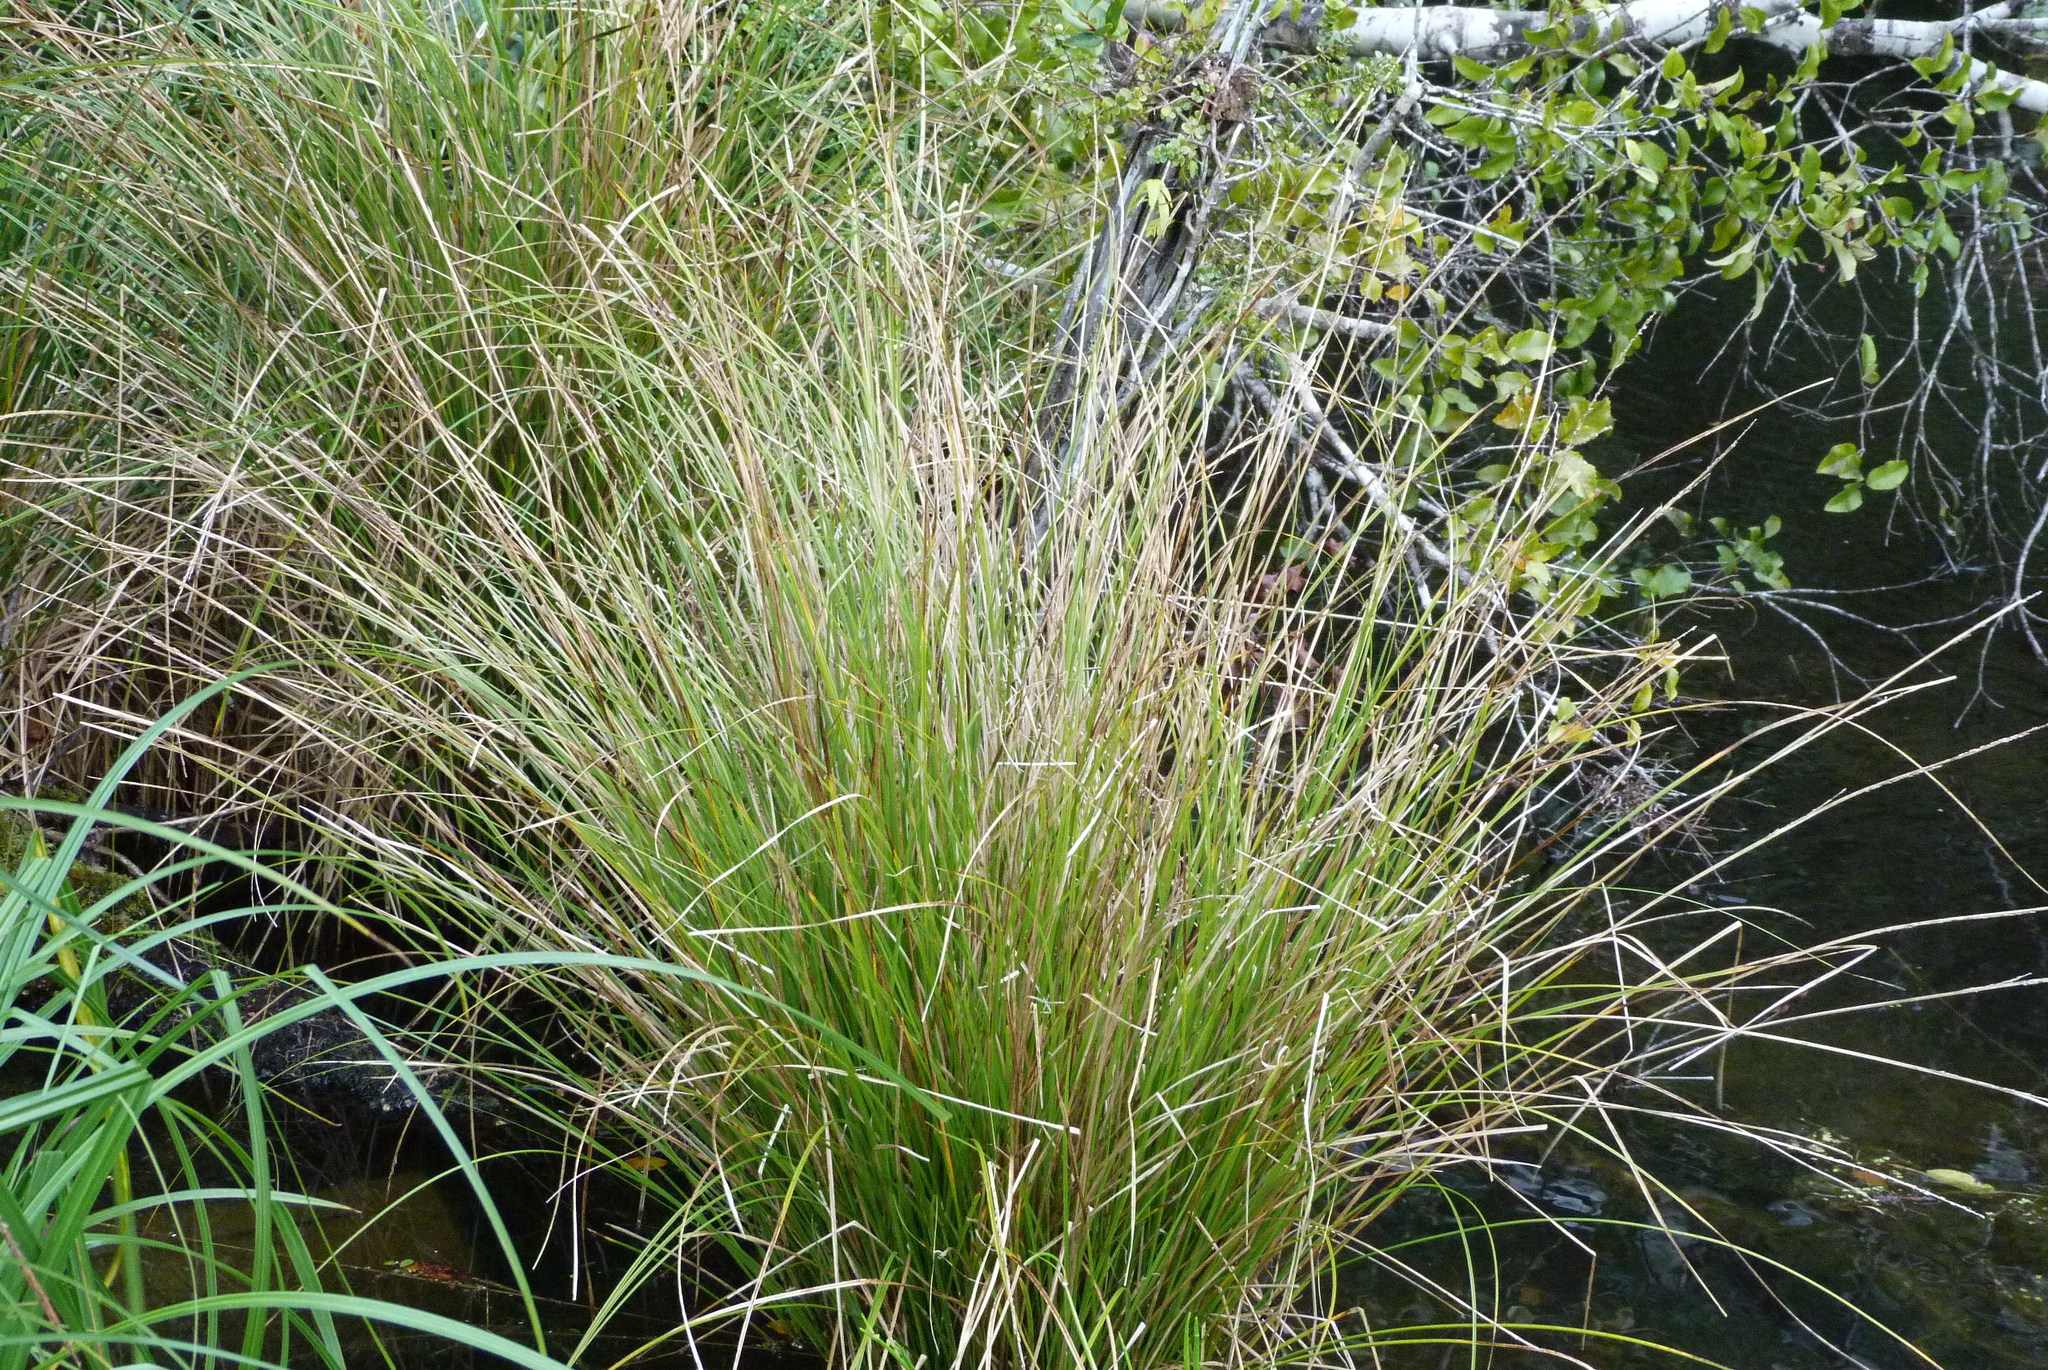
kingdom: Plantae
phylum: Tracheophyta
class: Liliopsida
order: Poales
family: Cyperaceae
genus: Carex
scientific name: Carex virgata
